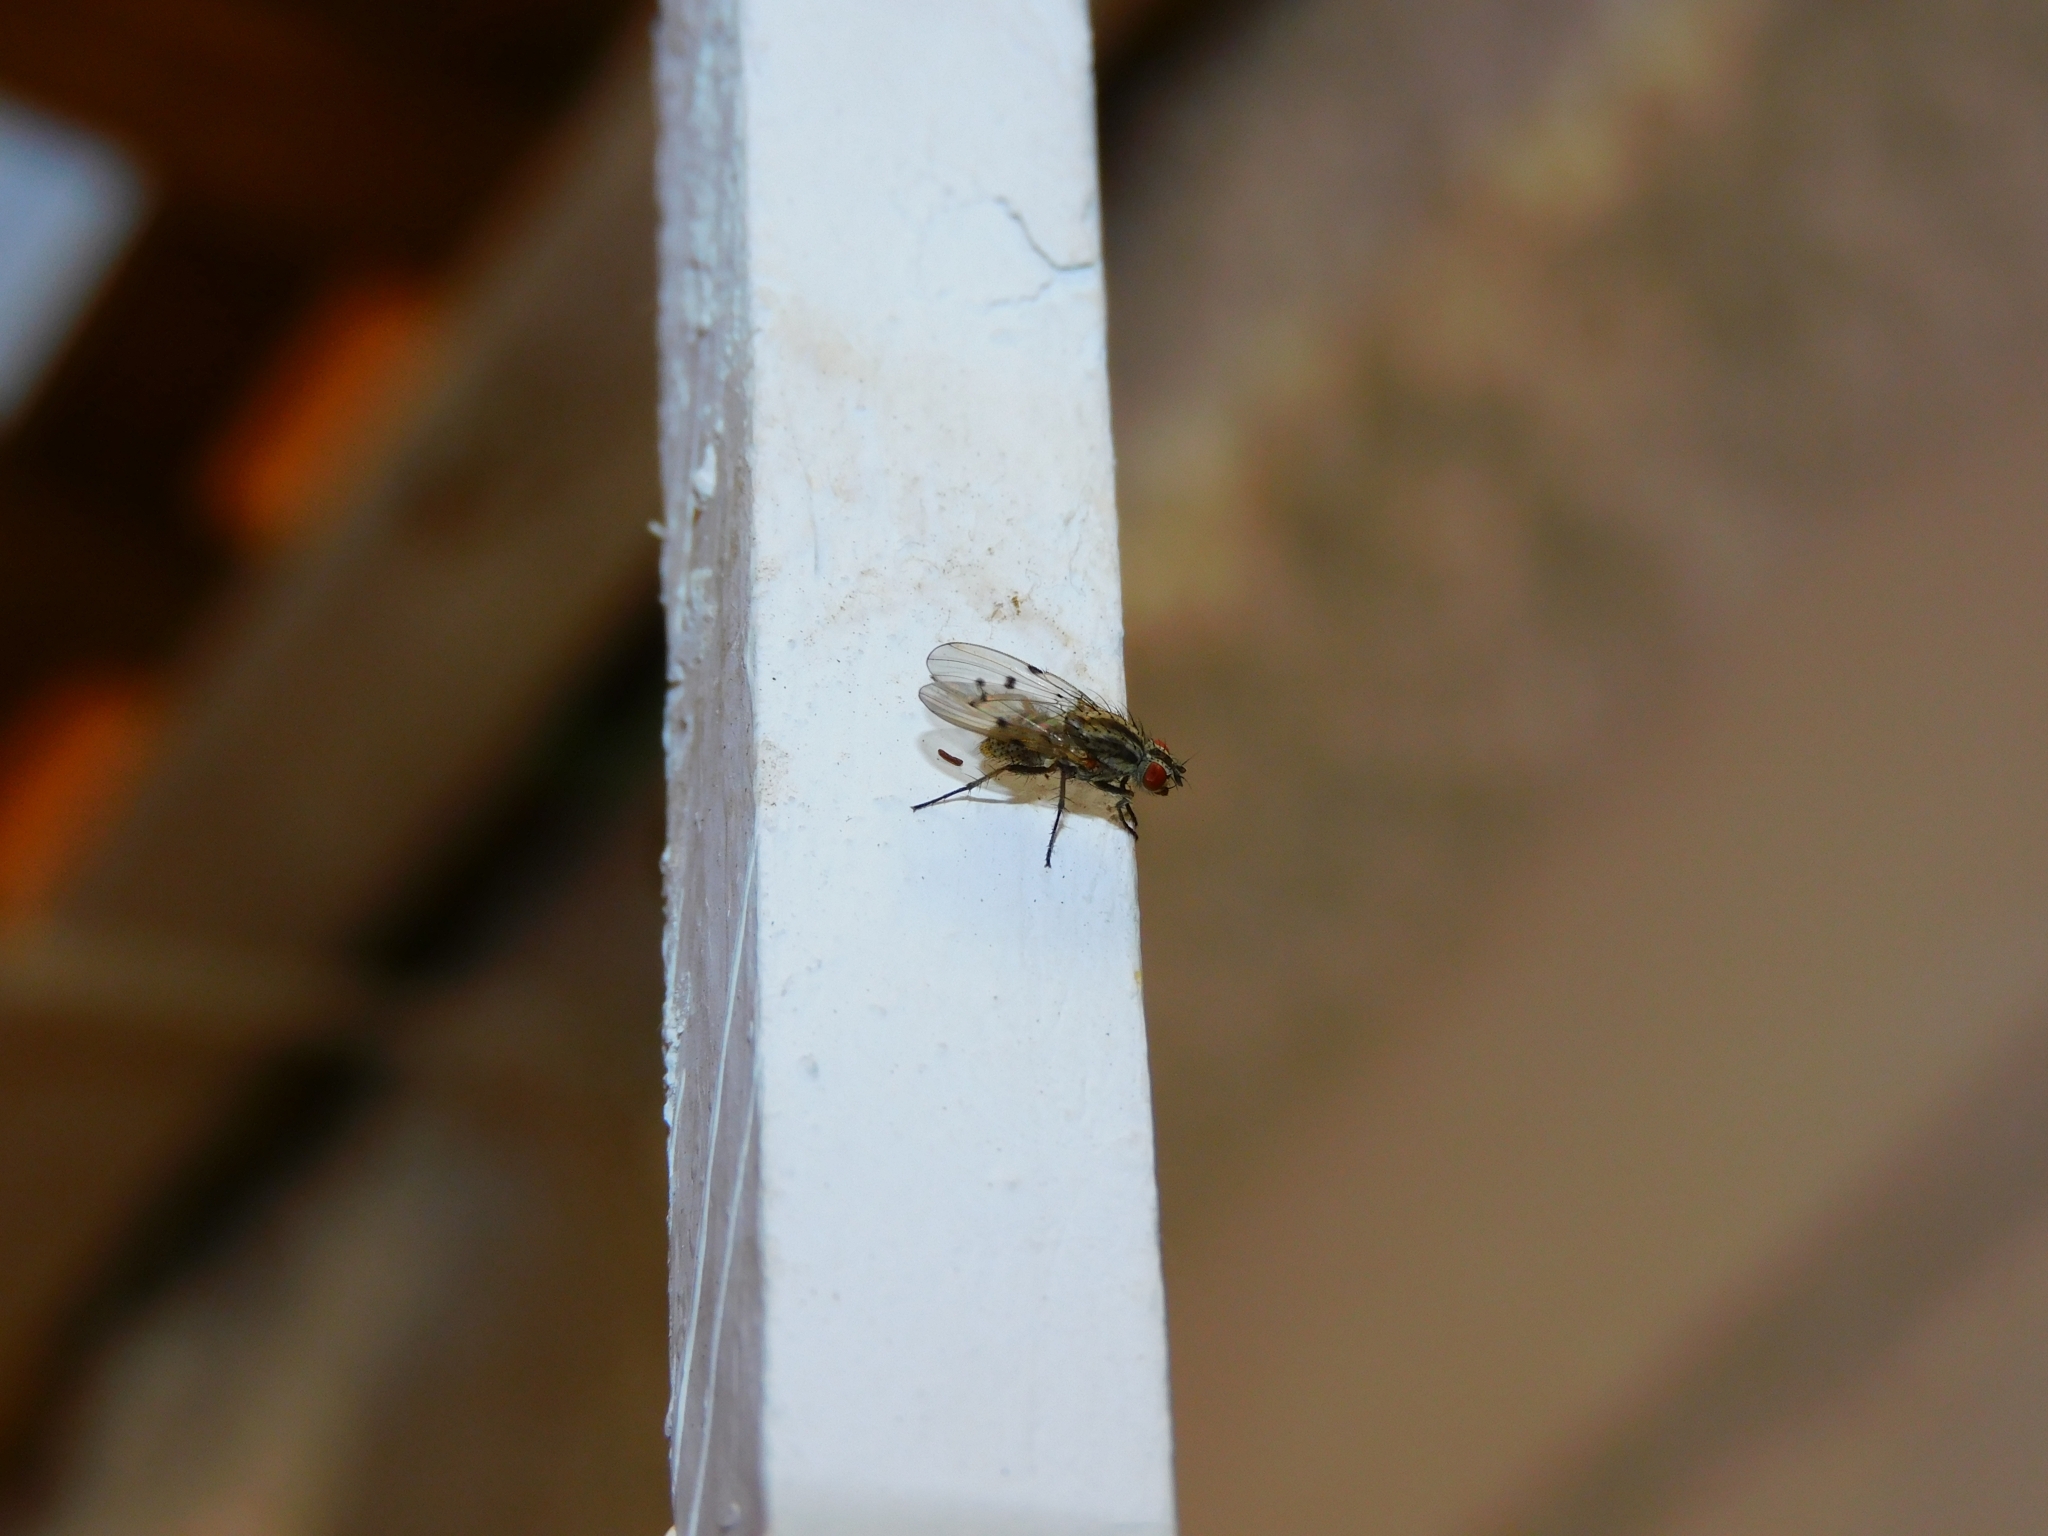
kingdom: Animalia
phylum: Arthropoda
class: Insecta
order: Diptera
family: Anthomyiidae
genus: Anthomyia
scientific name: Anthomyia punctipennis
